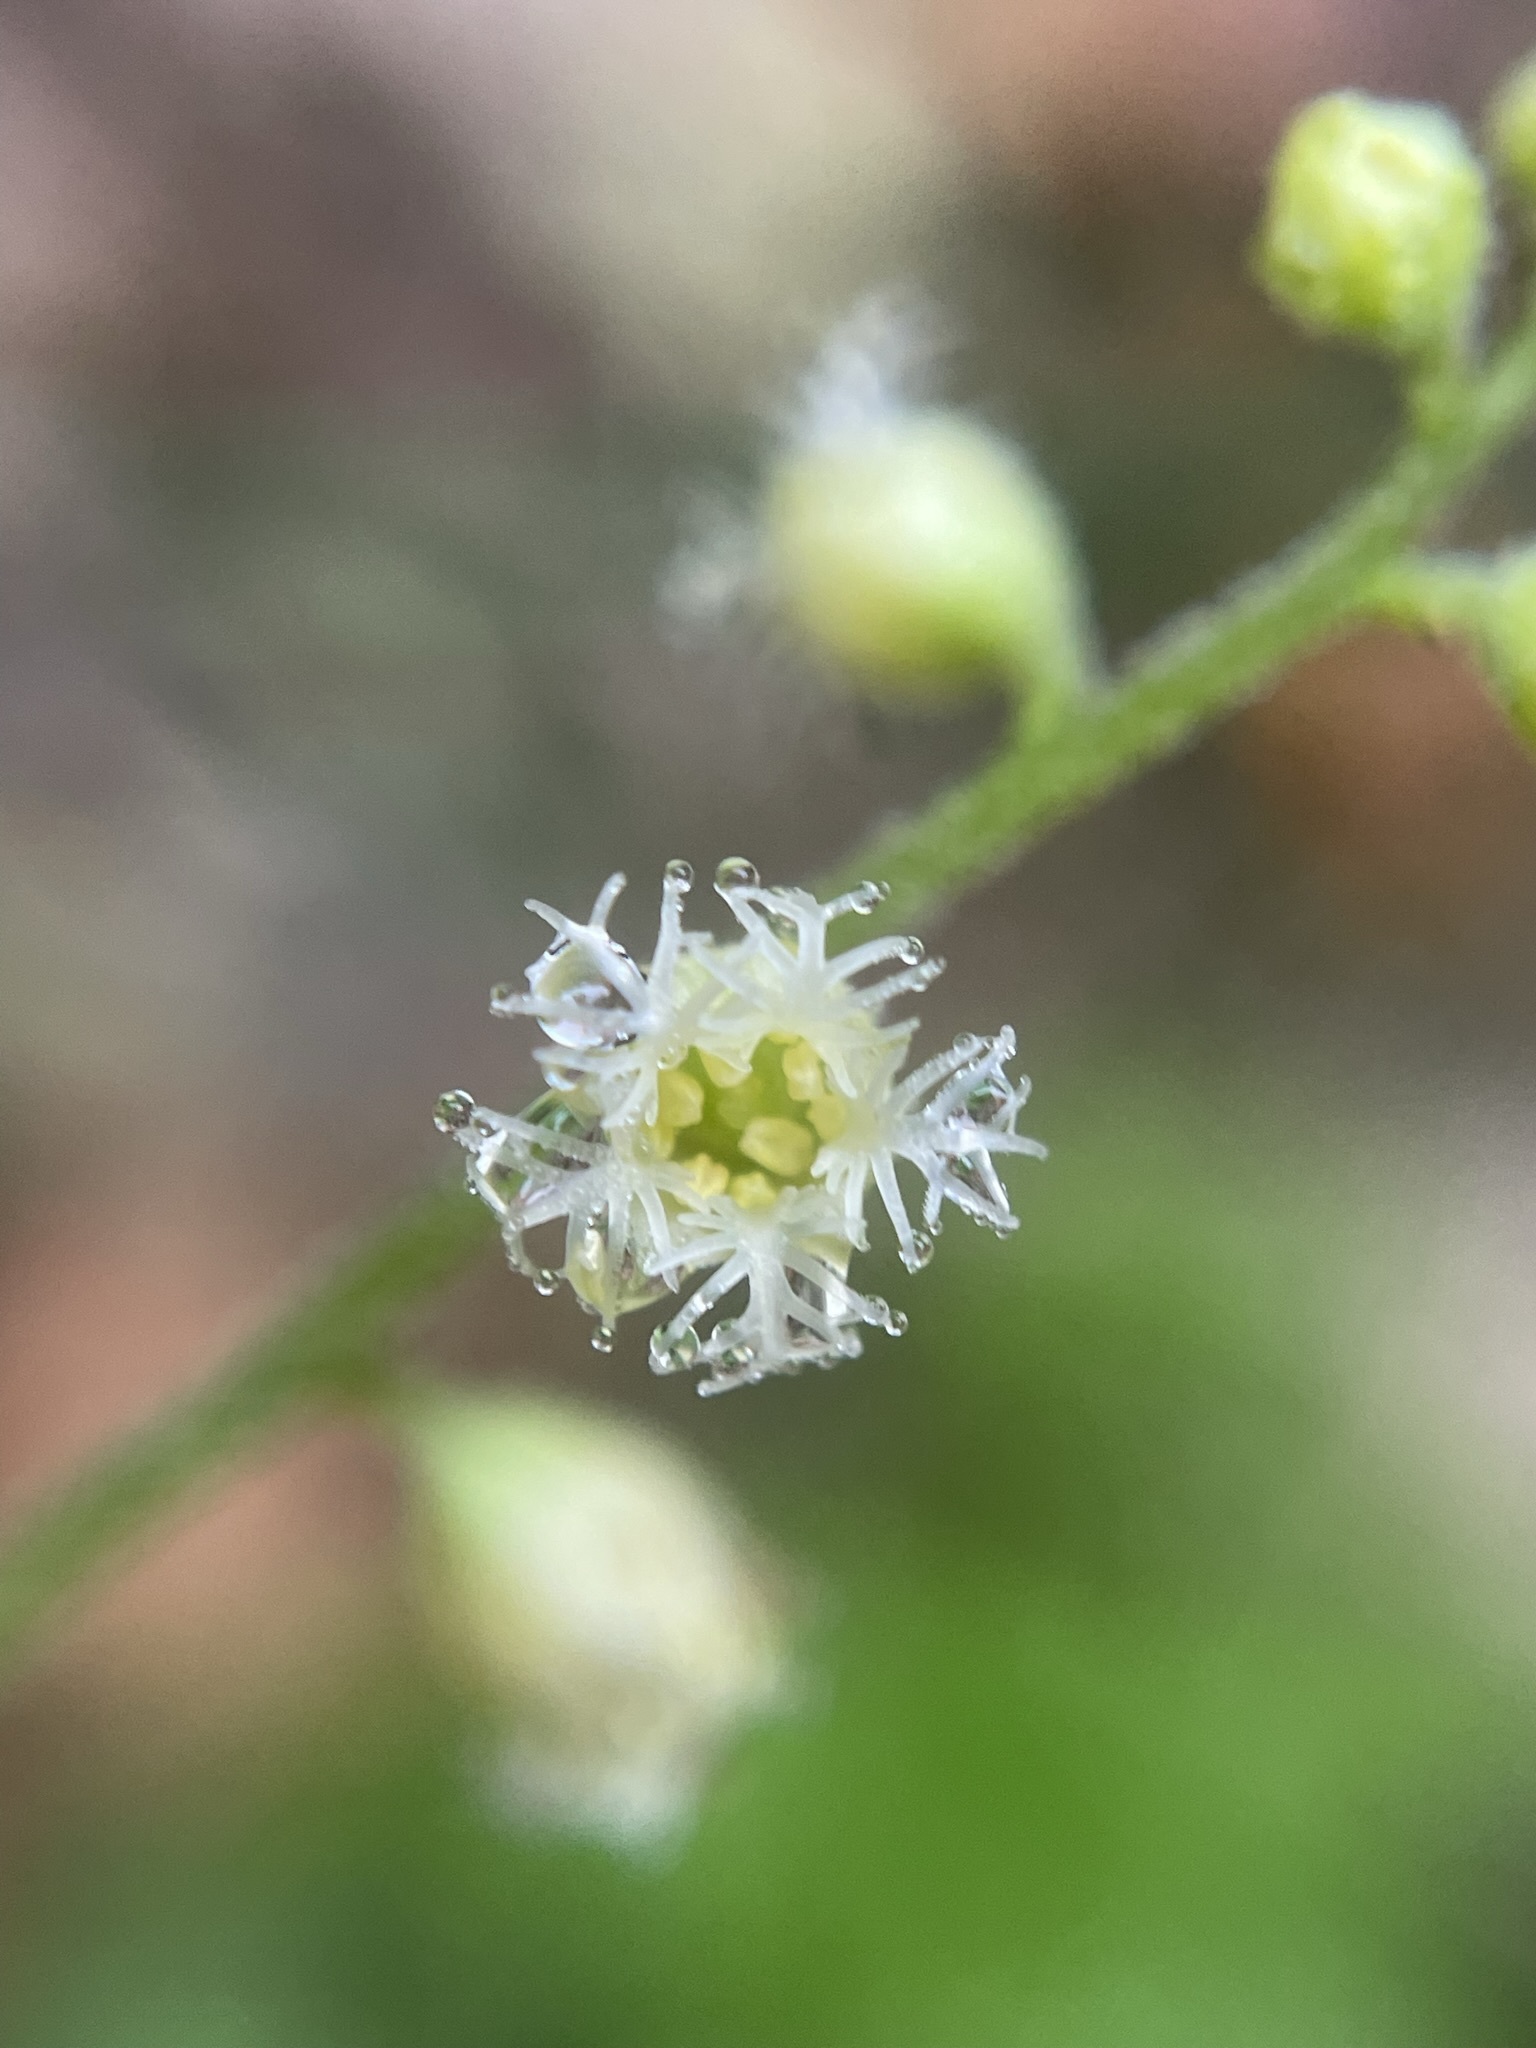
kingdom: Plantae
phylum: Tracheophyta
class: Magnoliopsida
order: Saxifragales
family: Saxifragaceae
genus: Mitella
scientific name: Mitella diphylla
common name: Coolwort
